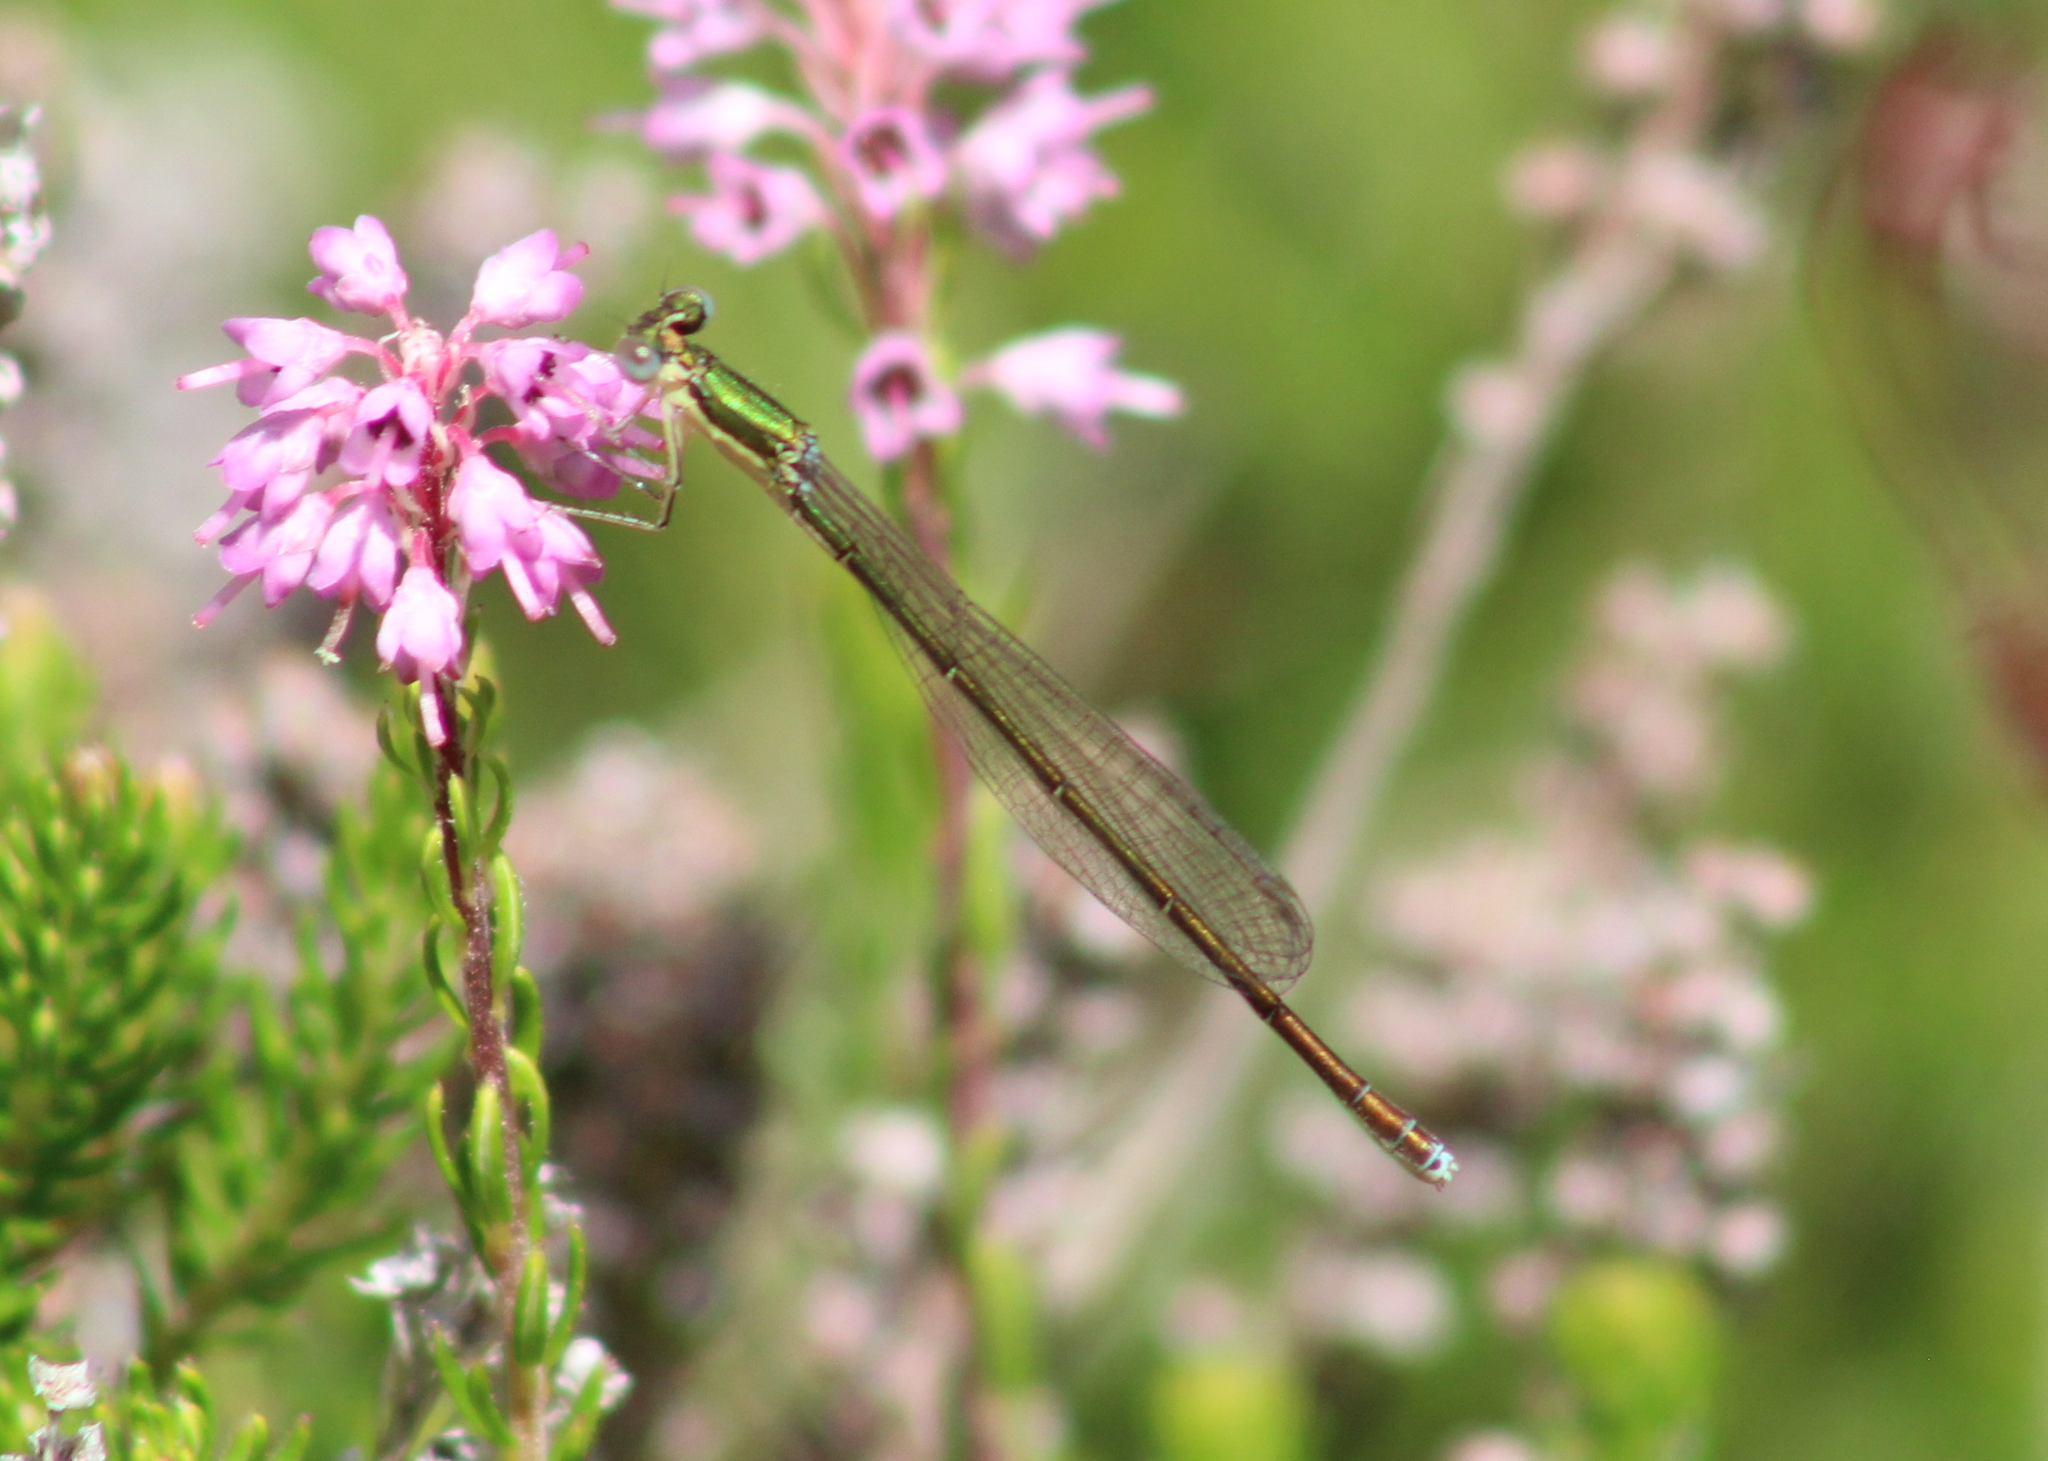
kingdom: Animalia
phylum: Arthropoda
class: Insecta
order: Odonata
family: Coenagrionidae
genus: Nehalennia
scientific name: Nehalennia irene
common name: Sedge sprite
